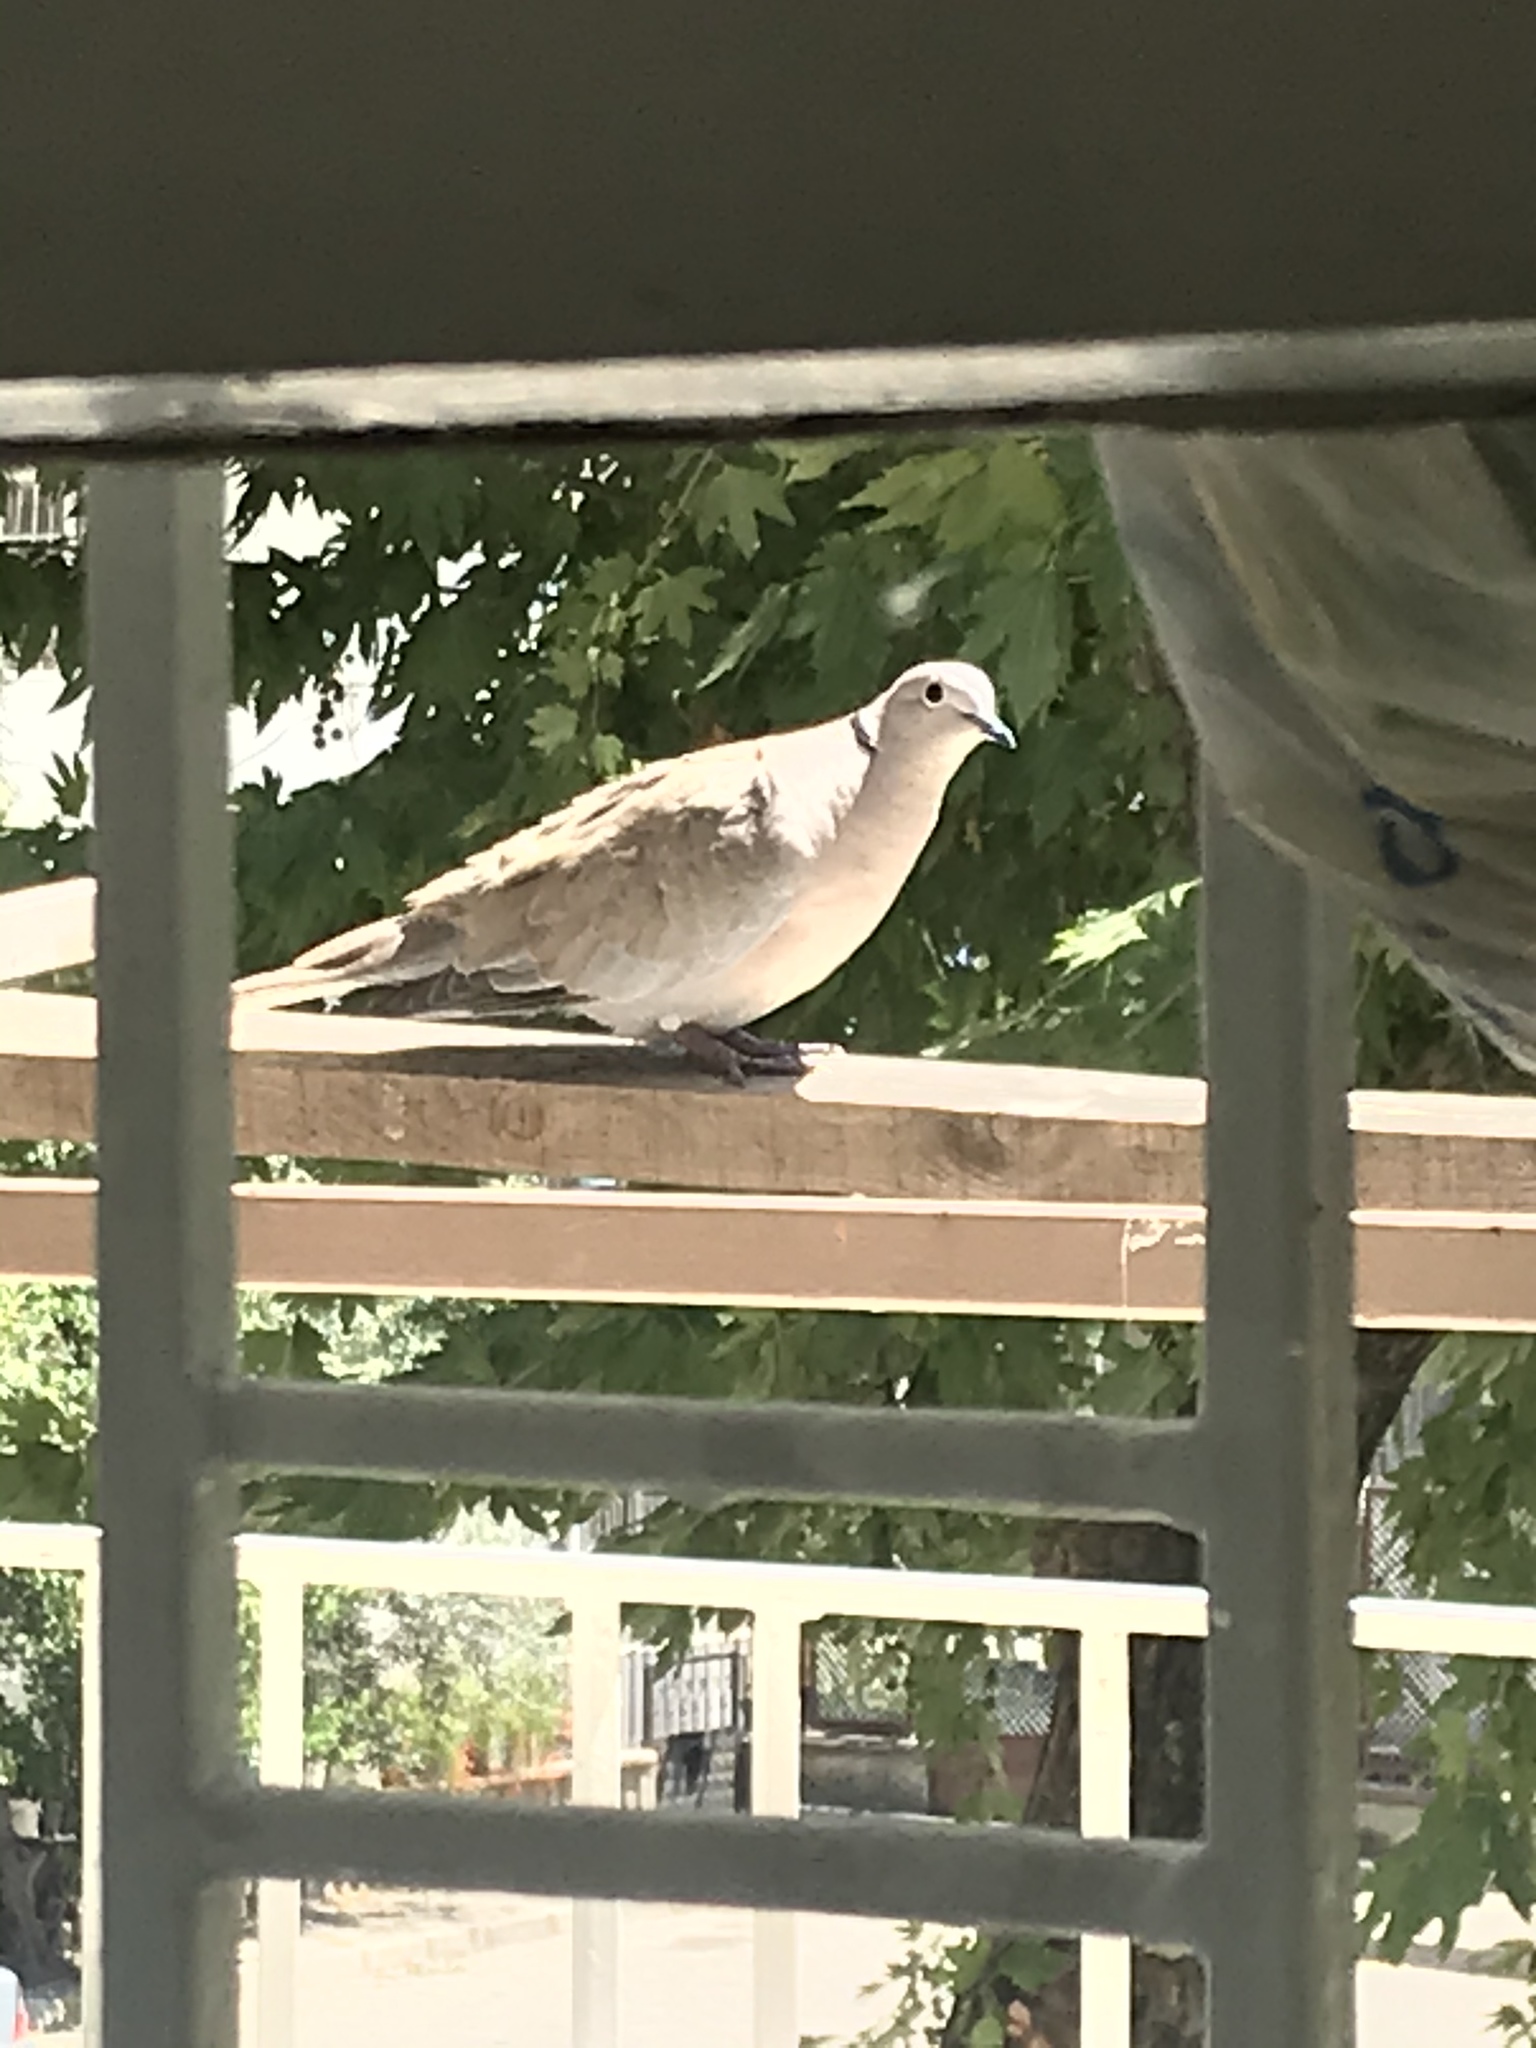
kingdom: Animalia
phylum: Chordata
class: Aves
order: Columbiformes
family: Columbidae
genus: Streptopelia
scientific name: Streptopelia decaocto
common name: Eurasian collared dove
